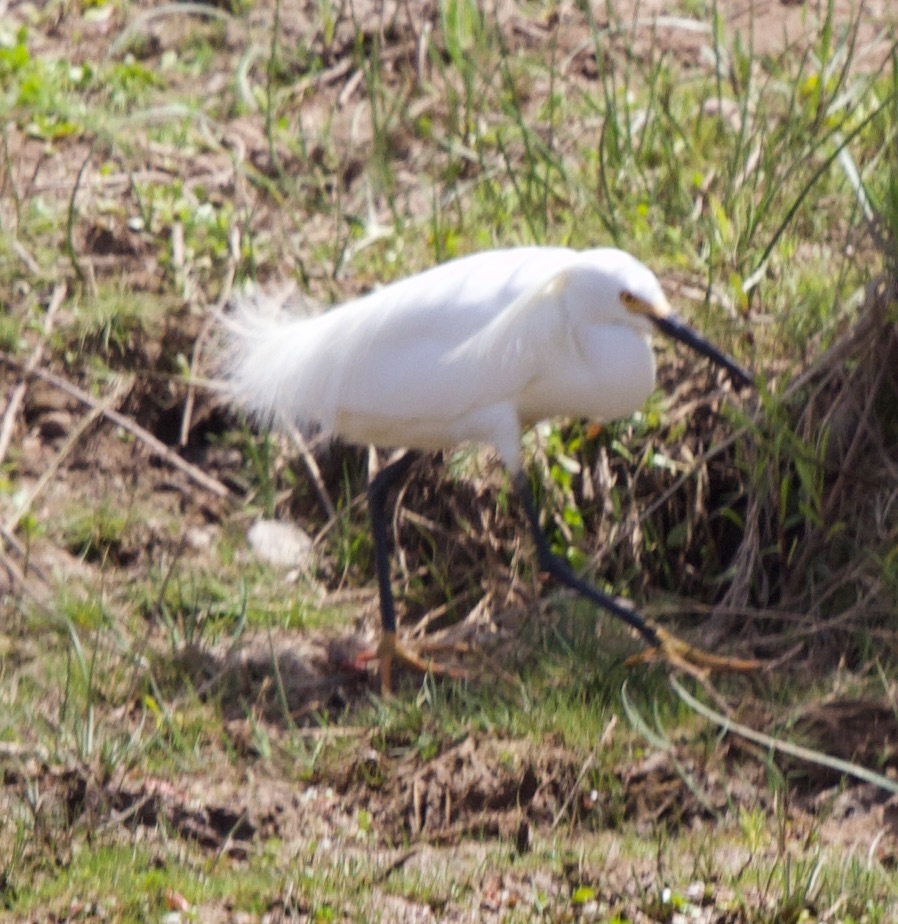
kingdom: Animalia
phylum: Chordata
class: Aves
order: Pelecaniformes
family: Ardeidae
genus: Egretta
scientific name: Egretta thula
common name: Snowy egret
